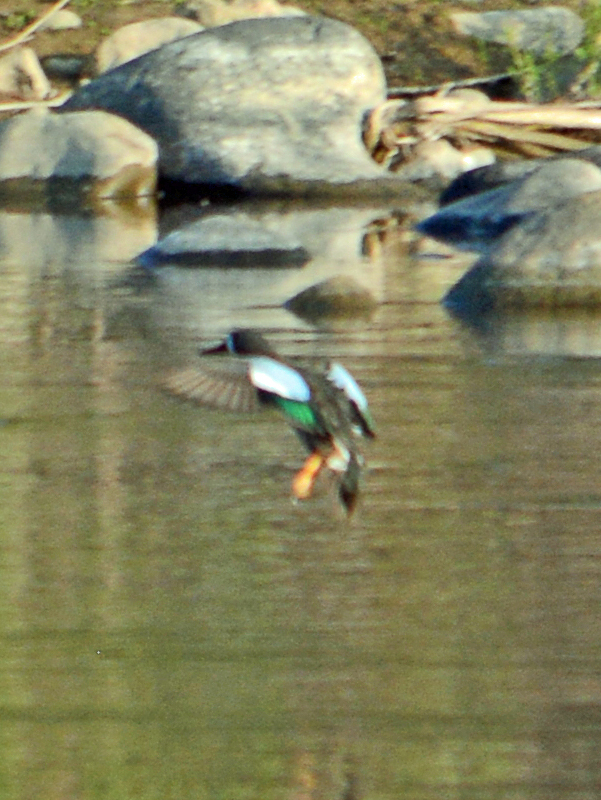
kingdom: Animalia
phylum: Chordata
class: Aves
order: Anseriformes
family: Anatidae
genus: Spatula
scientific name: Spatula discors
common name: Blue-winged teal
